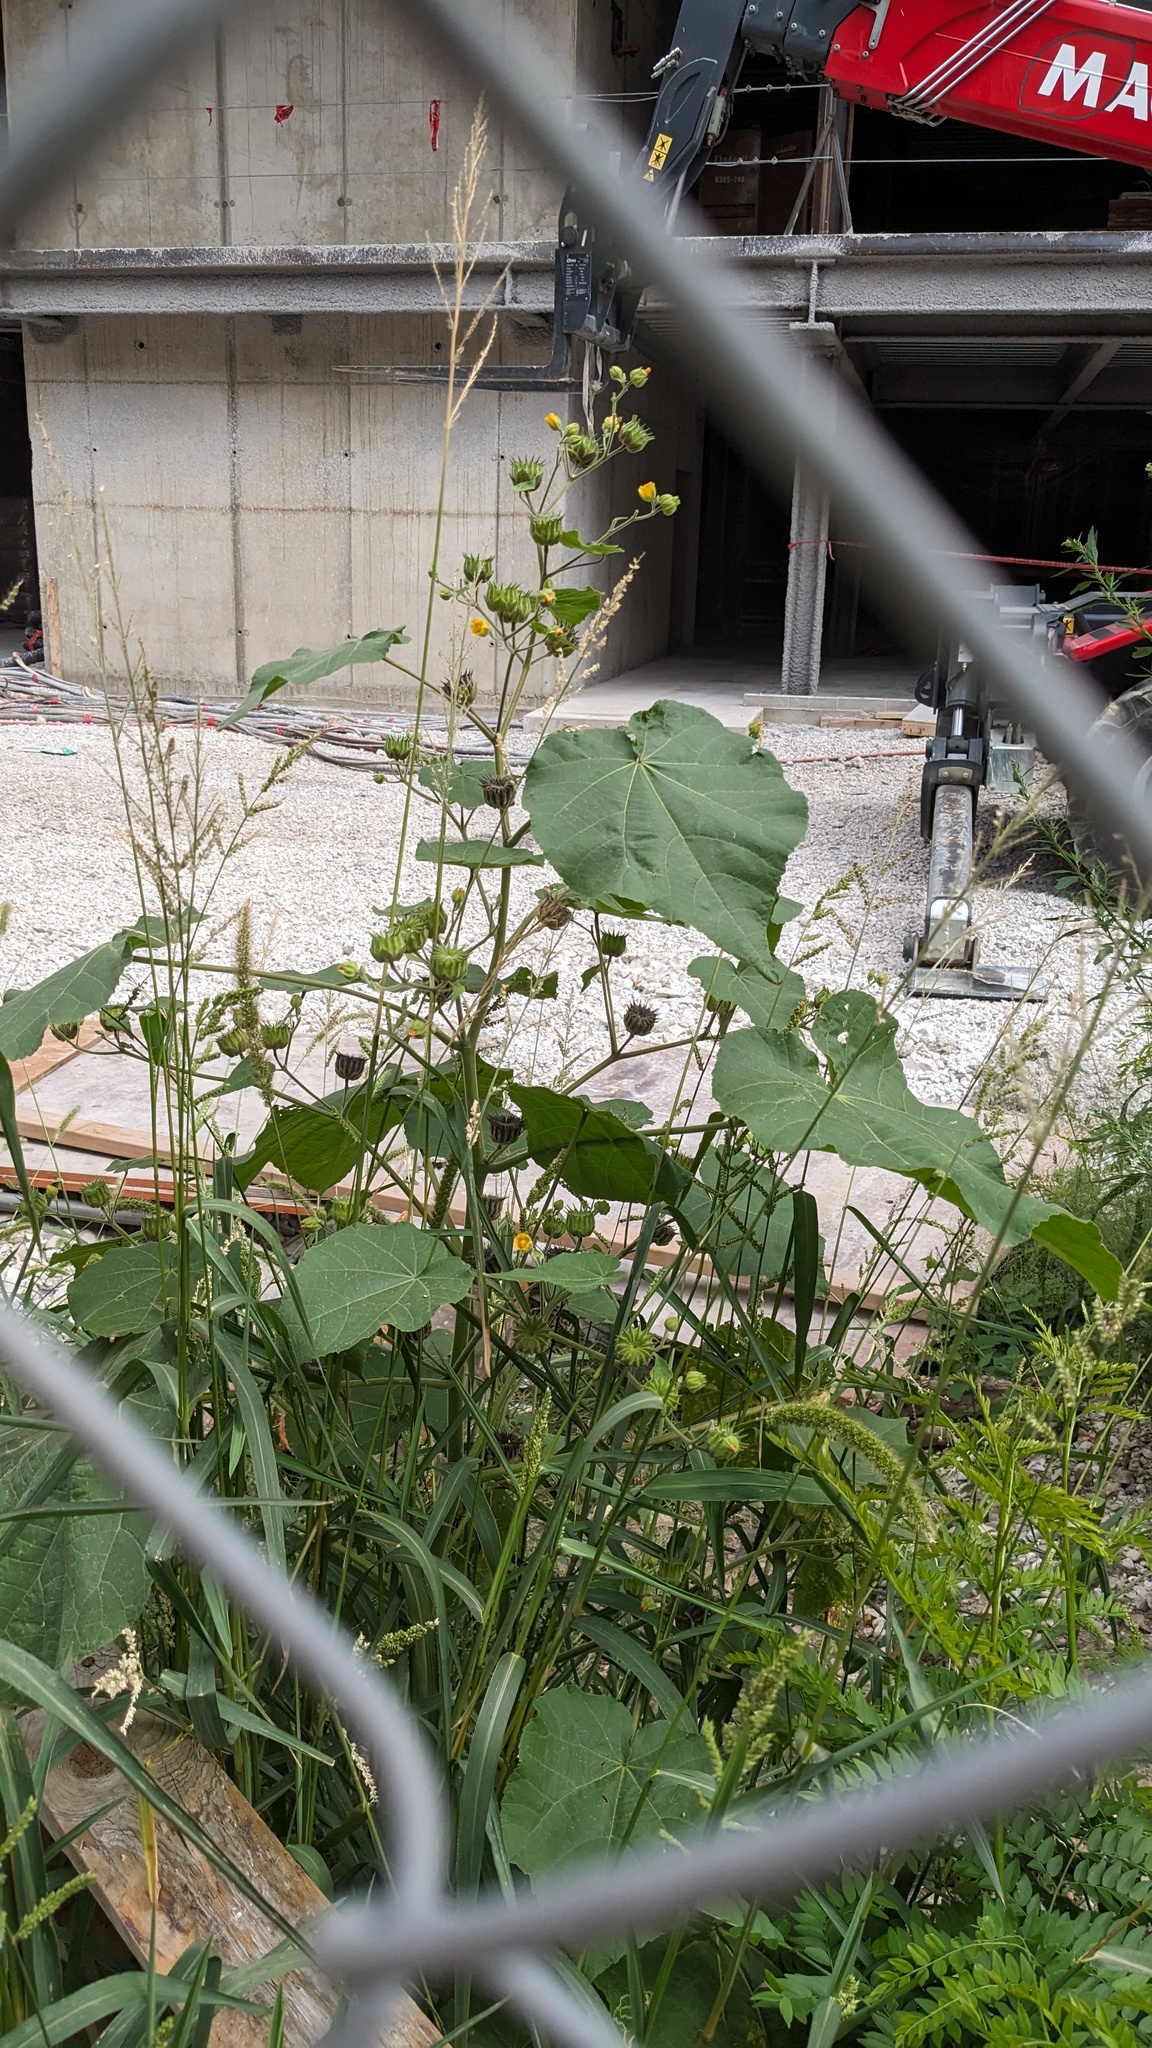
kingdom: Plantae
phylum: Tracheophyta
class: Magnoliopsida
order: Malvales
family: Malvaceae
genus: Abutilon
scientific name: Abutilon theophrasti
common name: Velvetleaf
